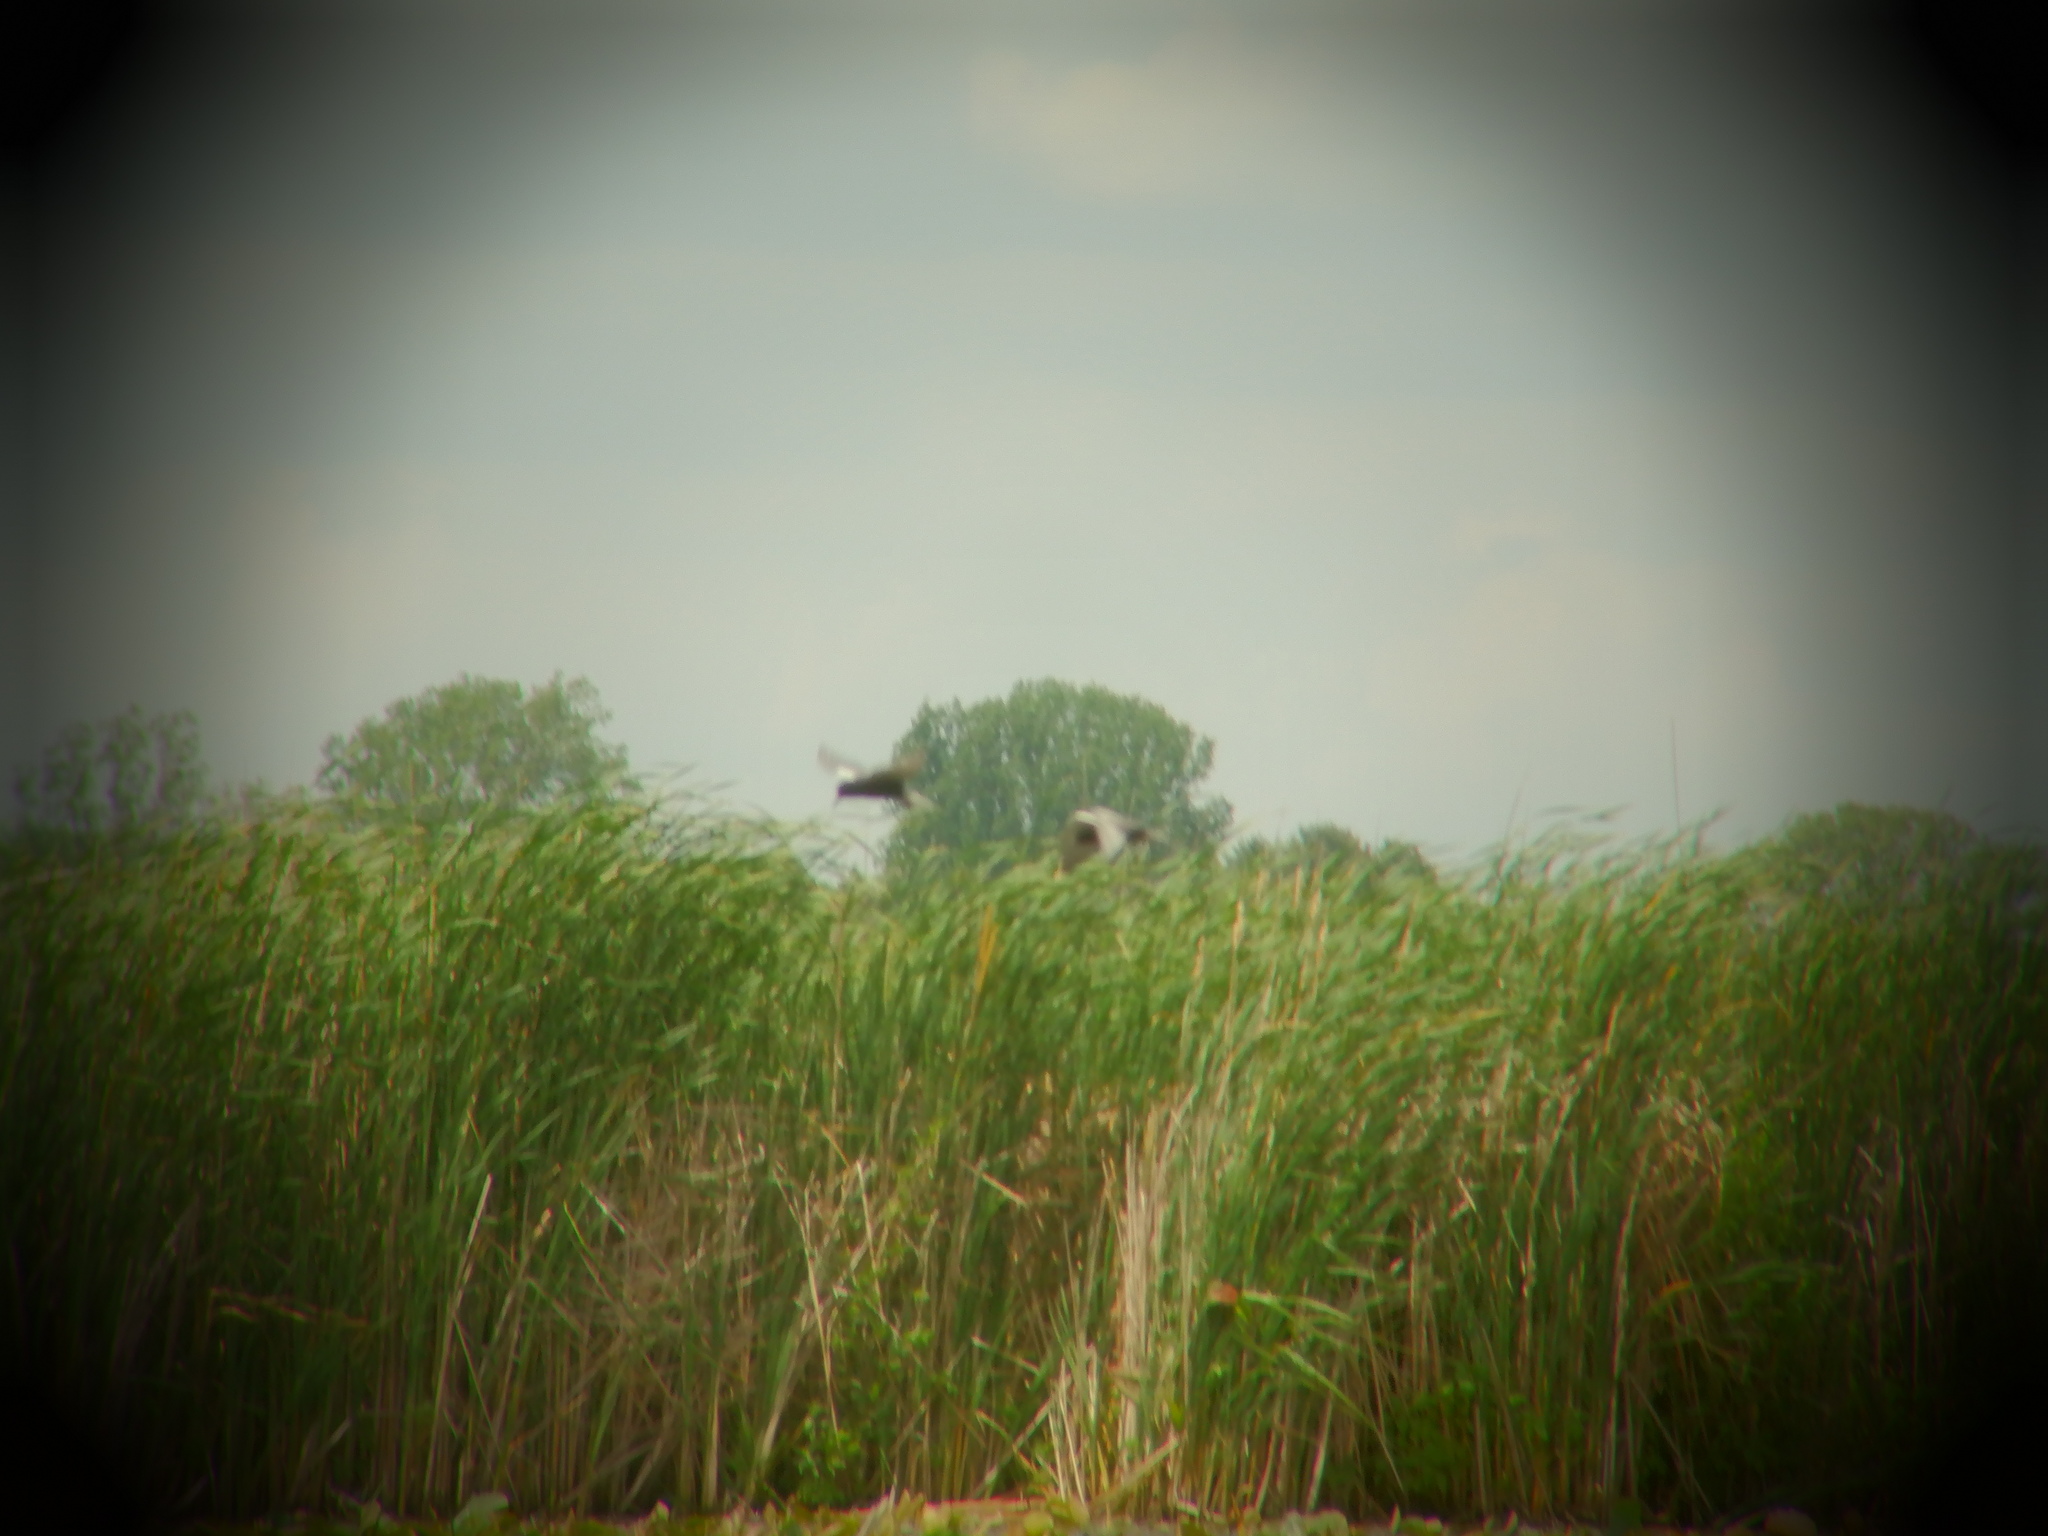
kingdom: Animalia
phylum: Chordata
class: Aves
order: Charadriiformes
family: Laridae
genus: Chlidonias
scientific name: Chlidonias niger
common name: Black tern
